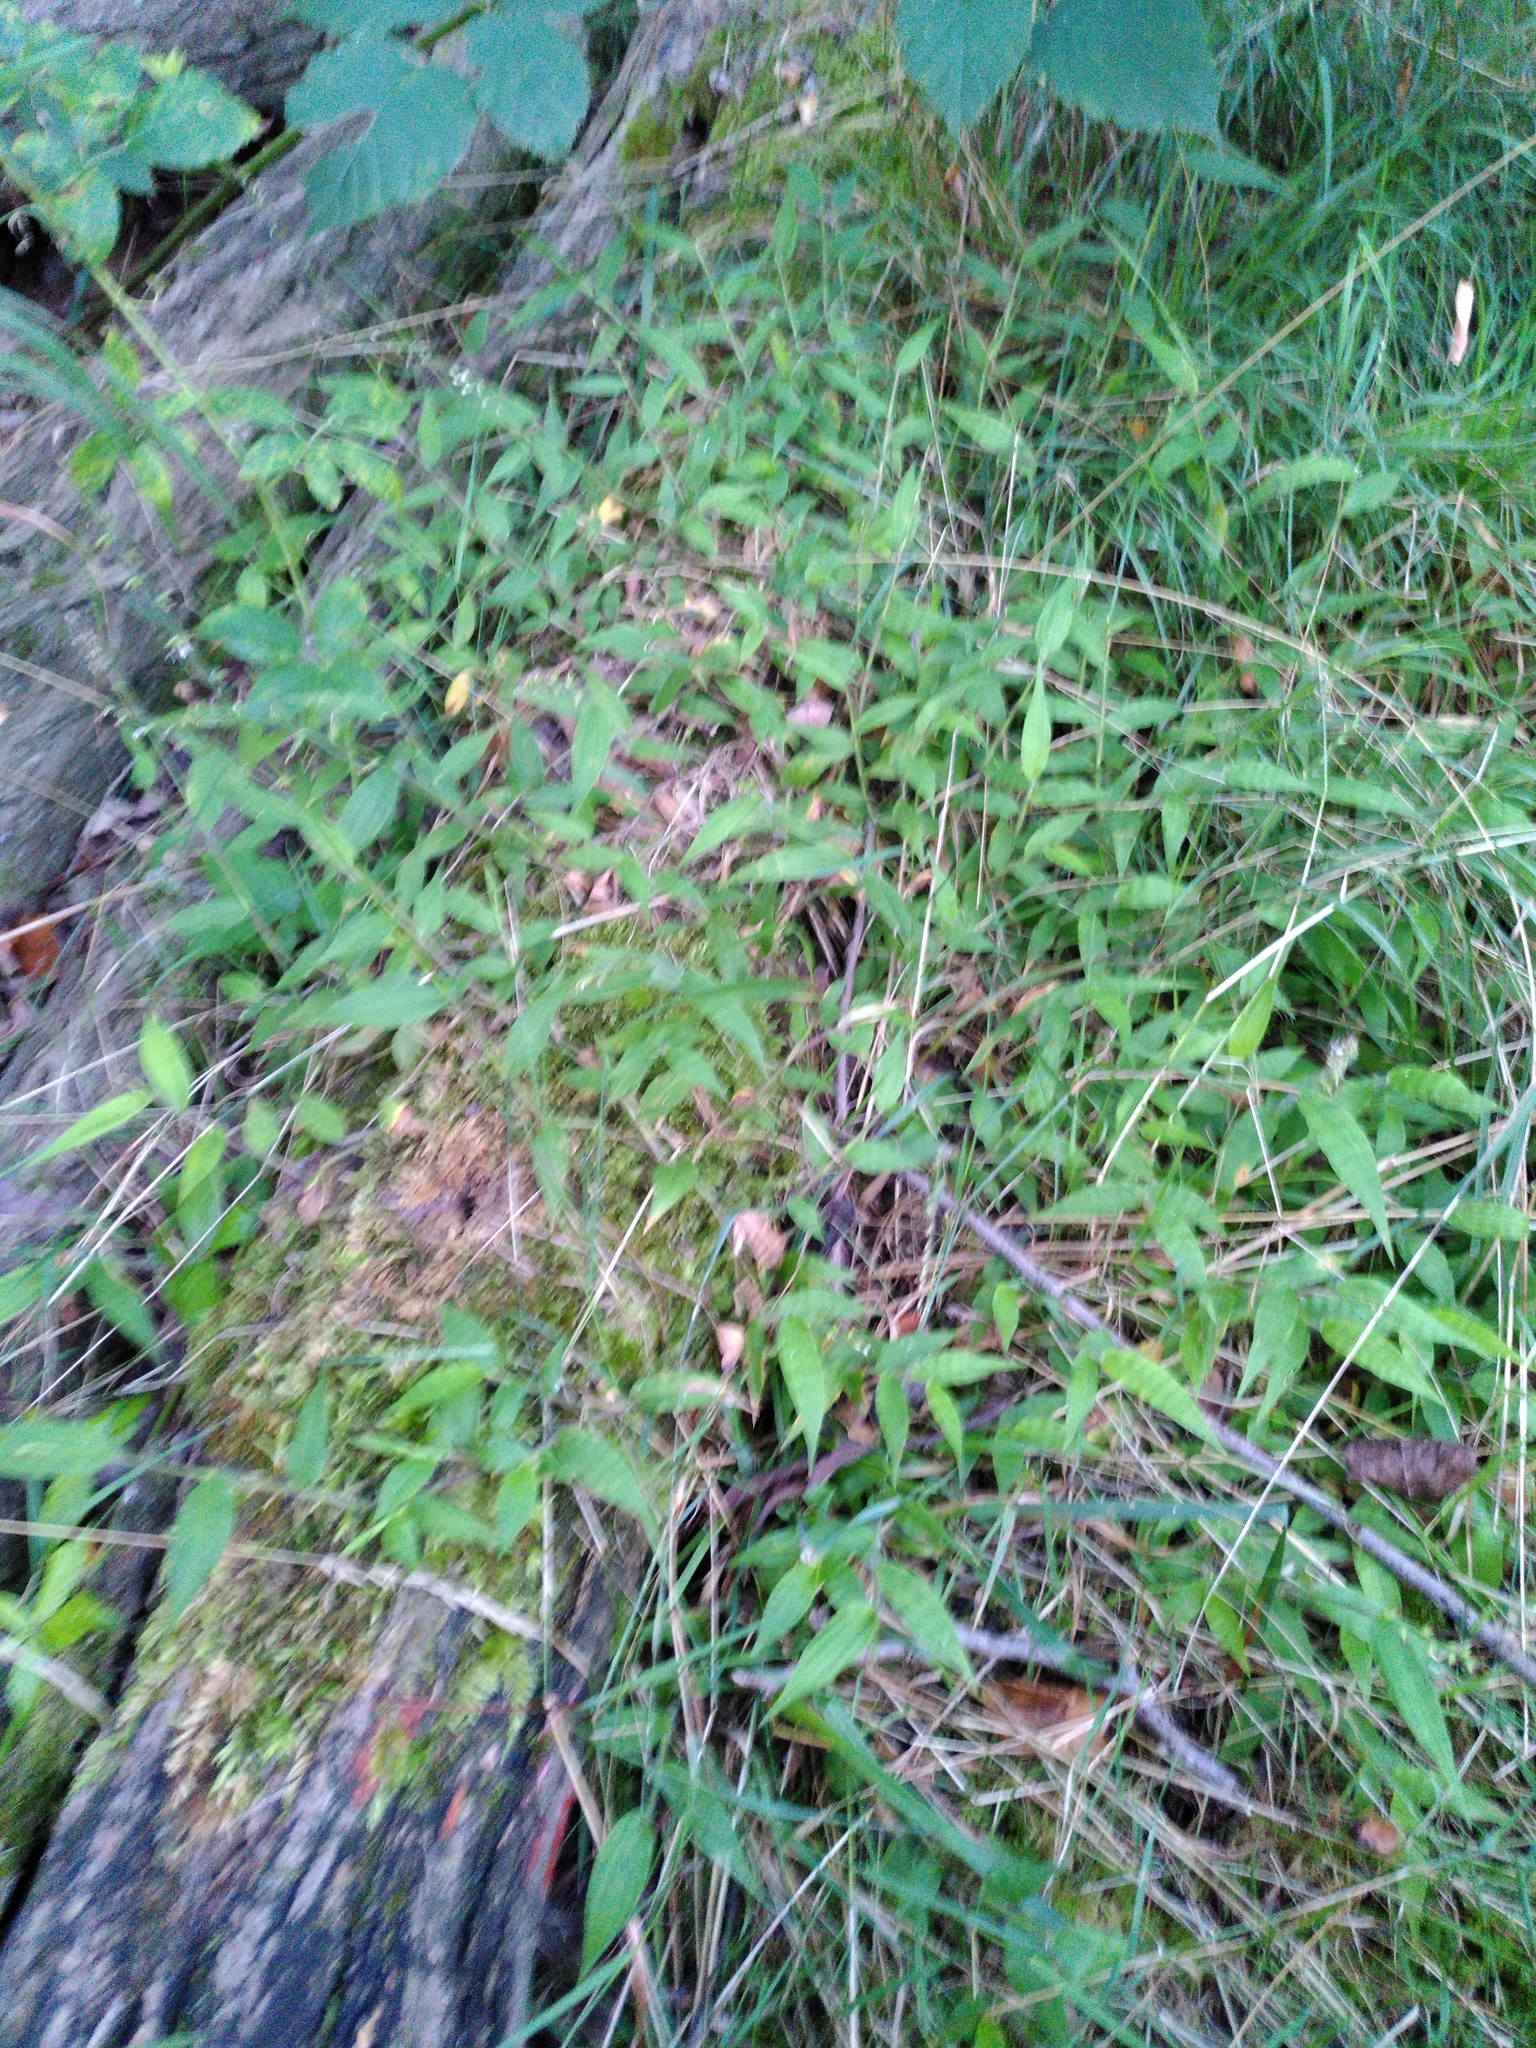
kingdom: Plantae
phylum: Tracheophyta
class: Liliopsida
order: Poales
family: Poaceae
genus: Oplismenus
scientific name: Oplismenus undulatifolius
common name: Wavyleaf basketgrass
